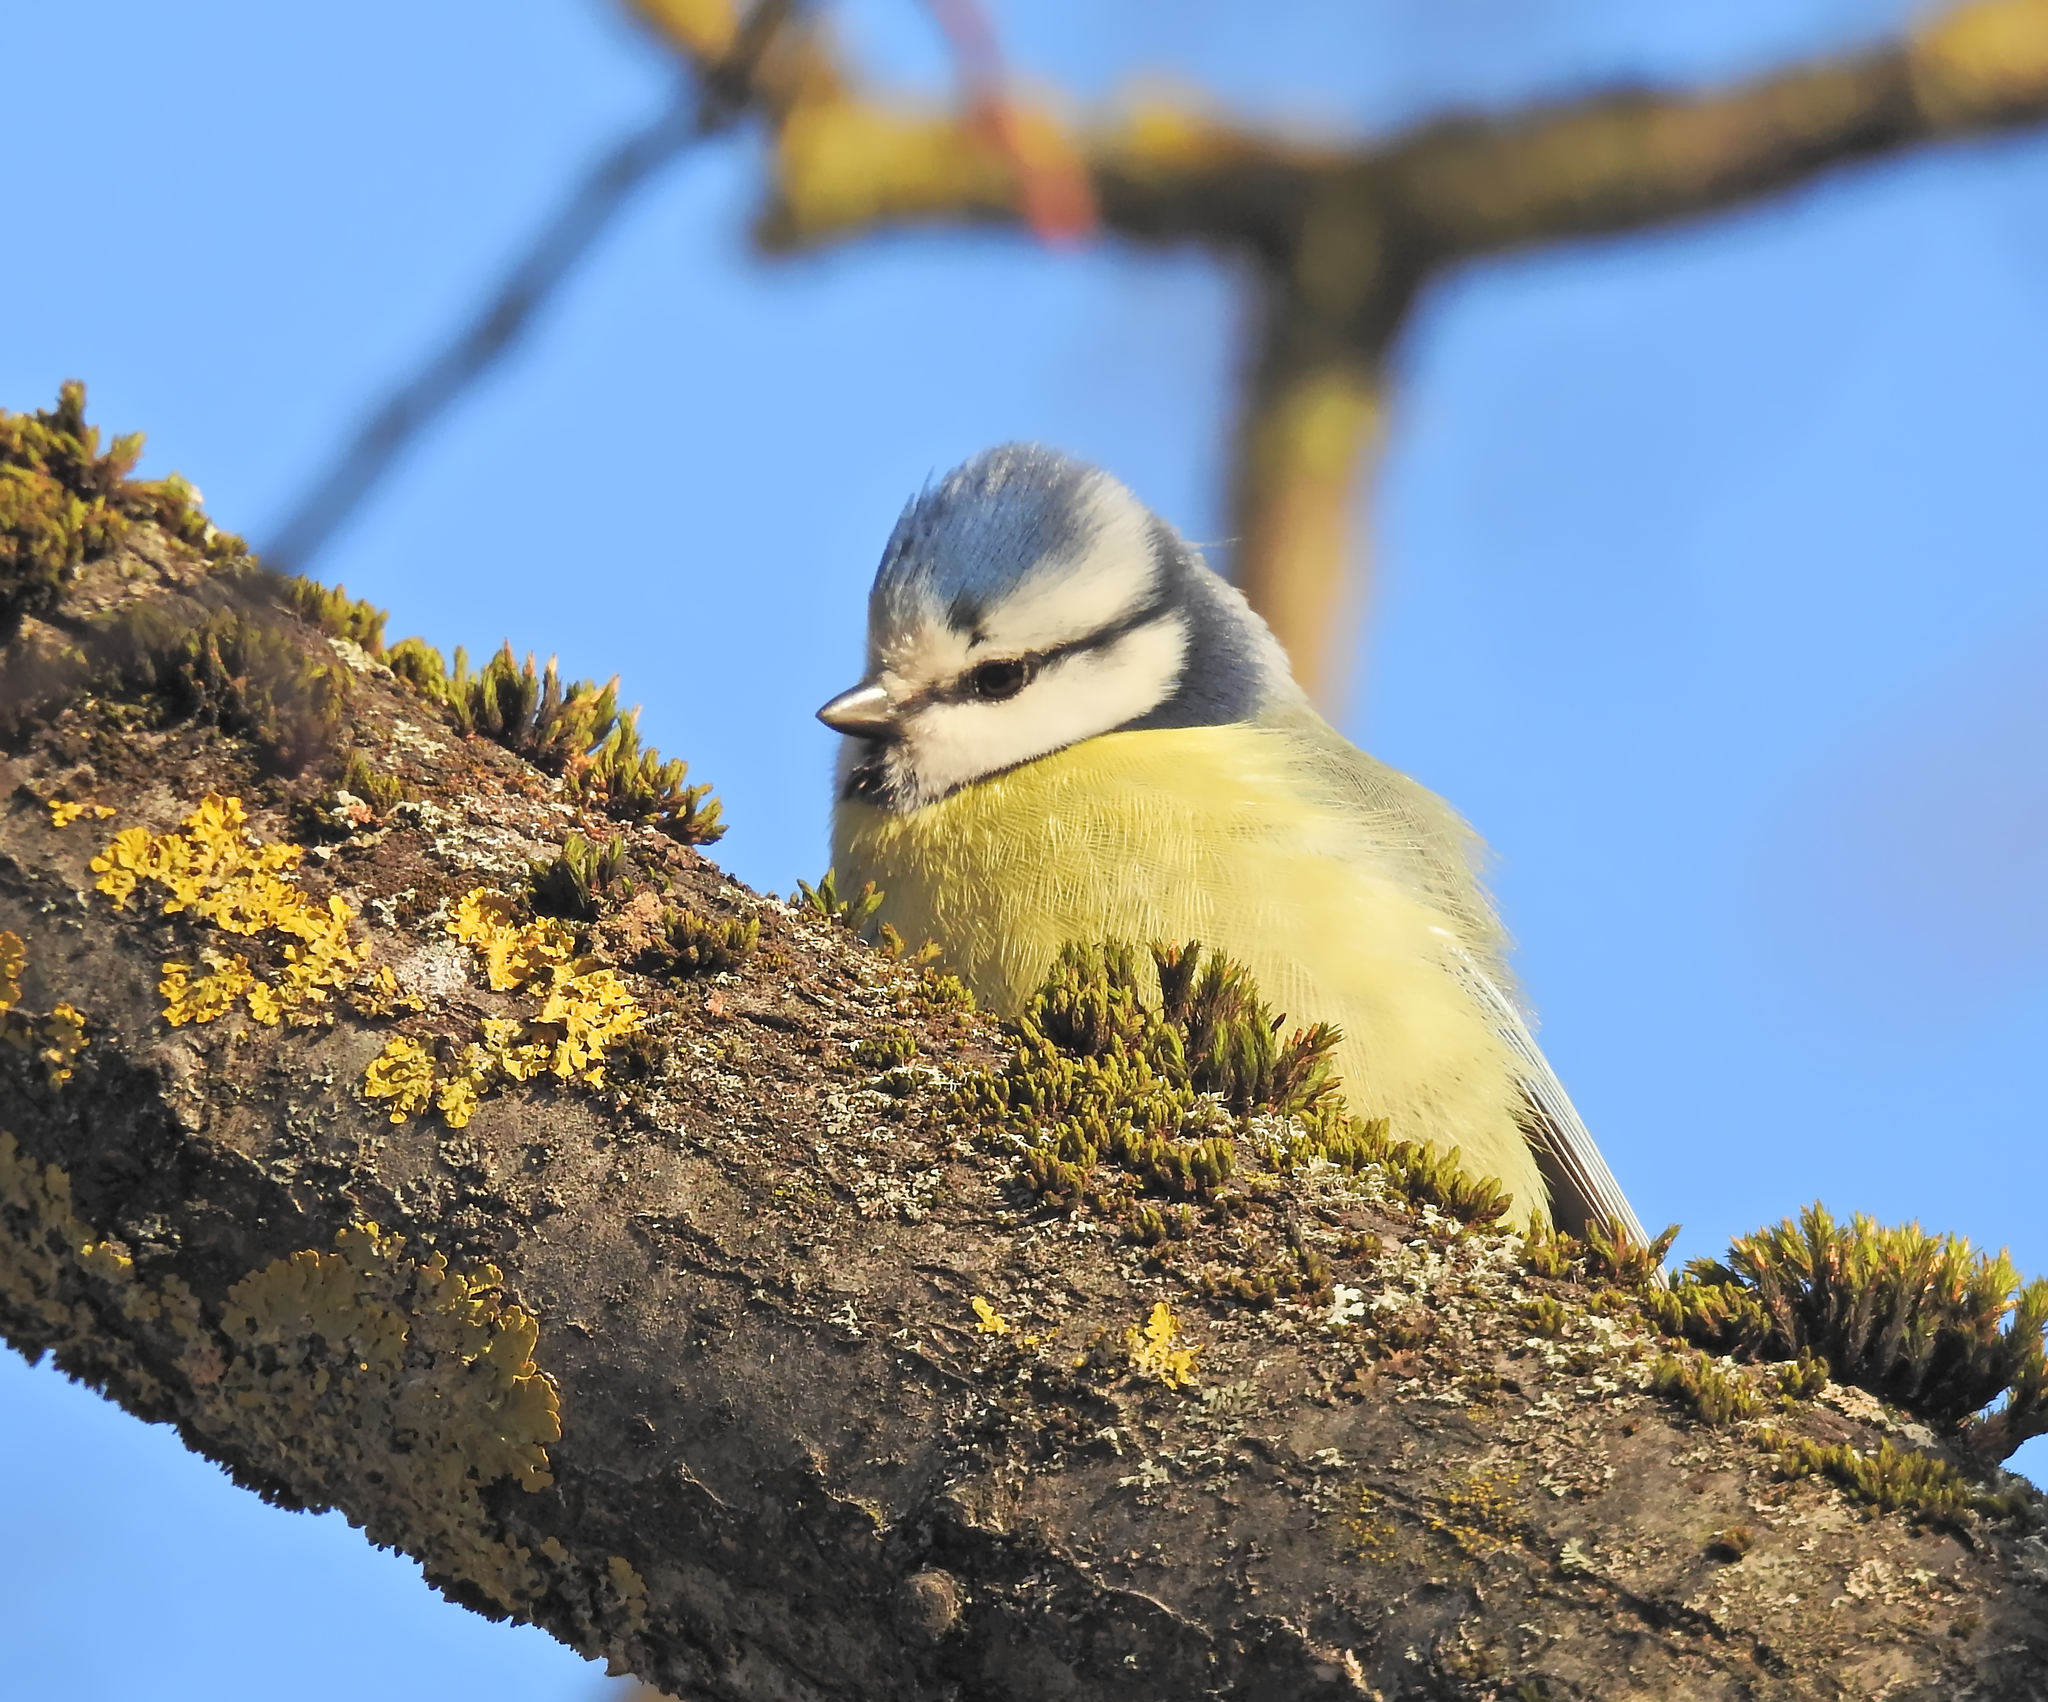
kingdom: Animalia
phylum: Chordata
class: Aves
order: Passeriformes
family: Paridae
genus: Cyanistes
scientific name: Cyanistes caeruleus
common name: Eurasian blue tit
